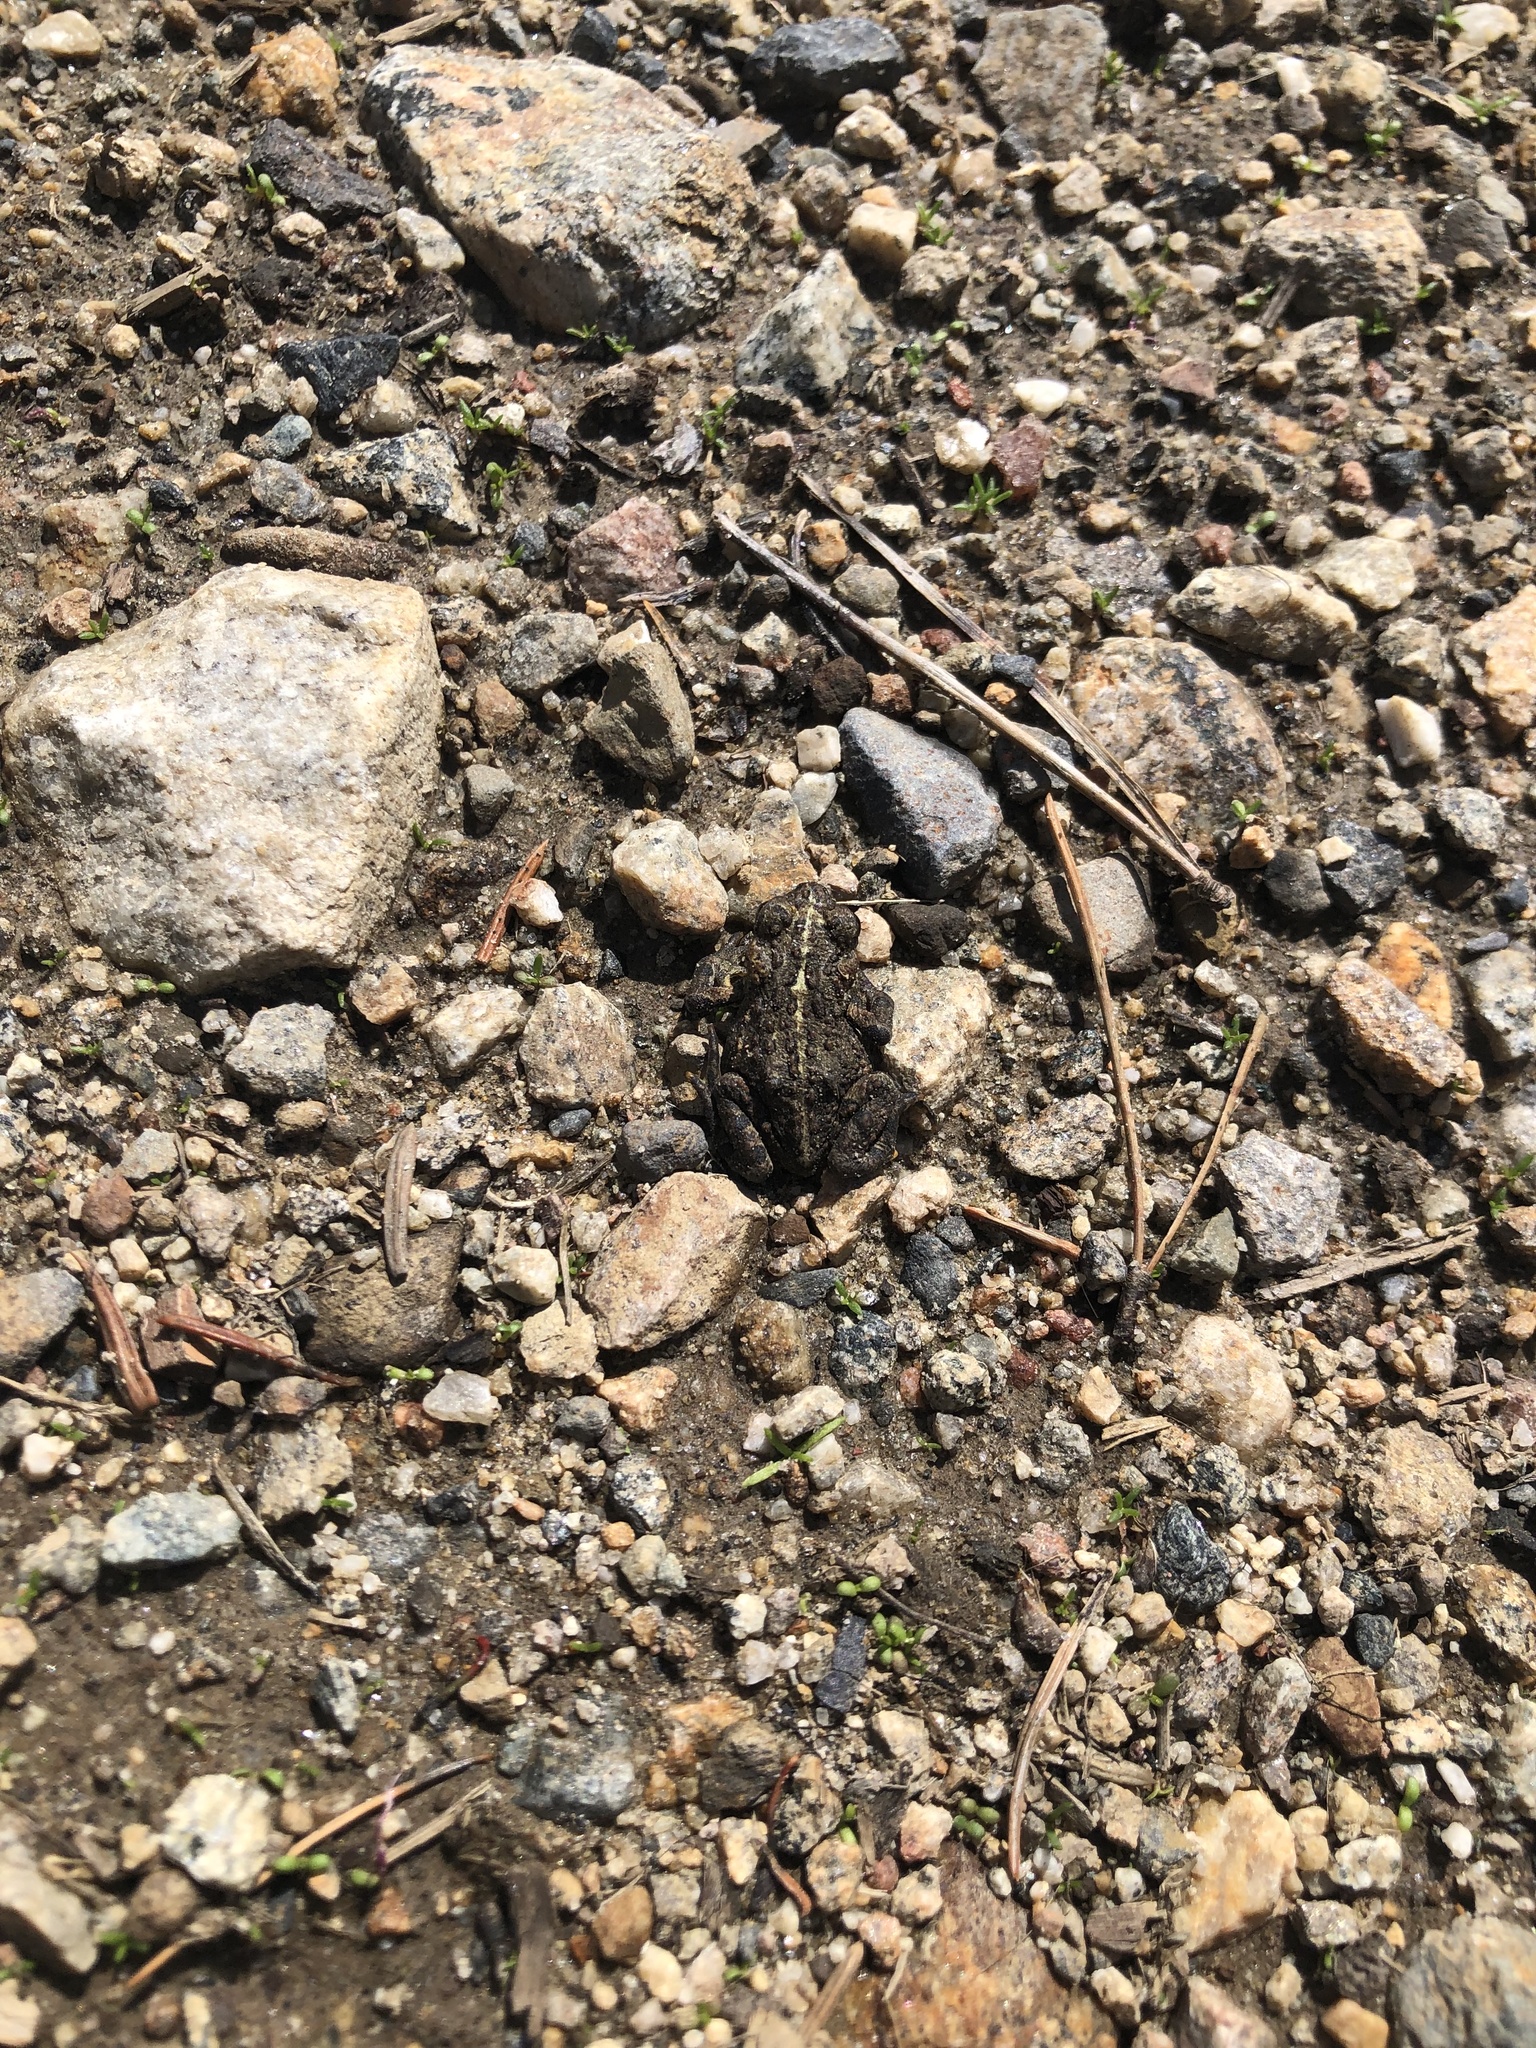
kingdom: Animalia
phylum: Chordata
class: Amphibia
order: Anura
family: Bufonidae
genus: Anaxyrus
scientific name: Anaxyrus boreas
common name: Western toad
